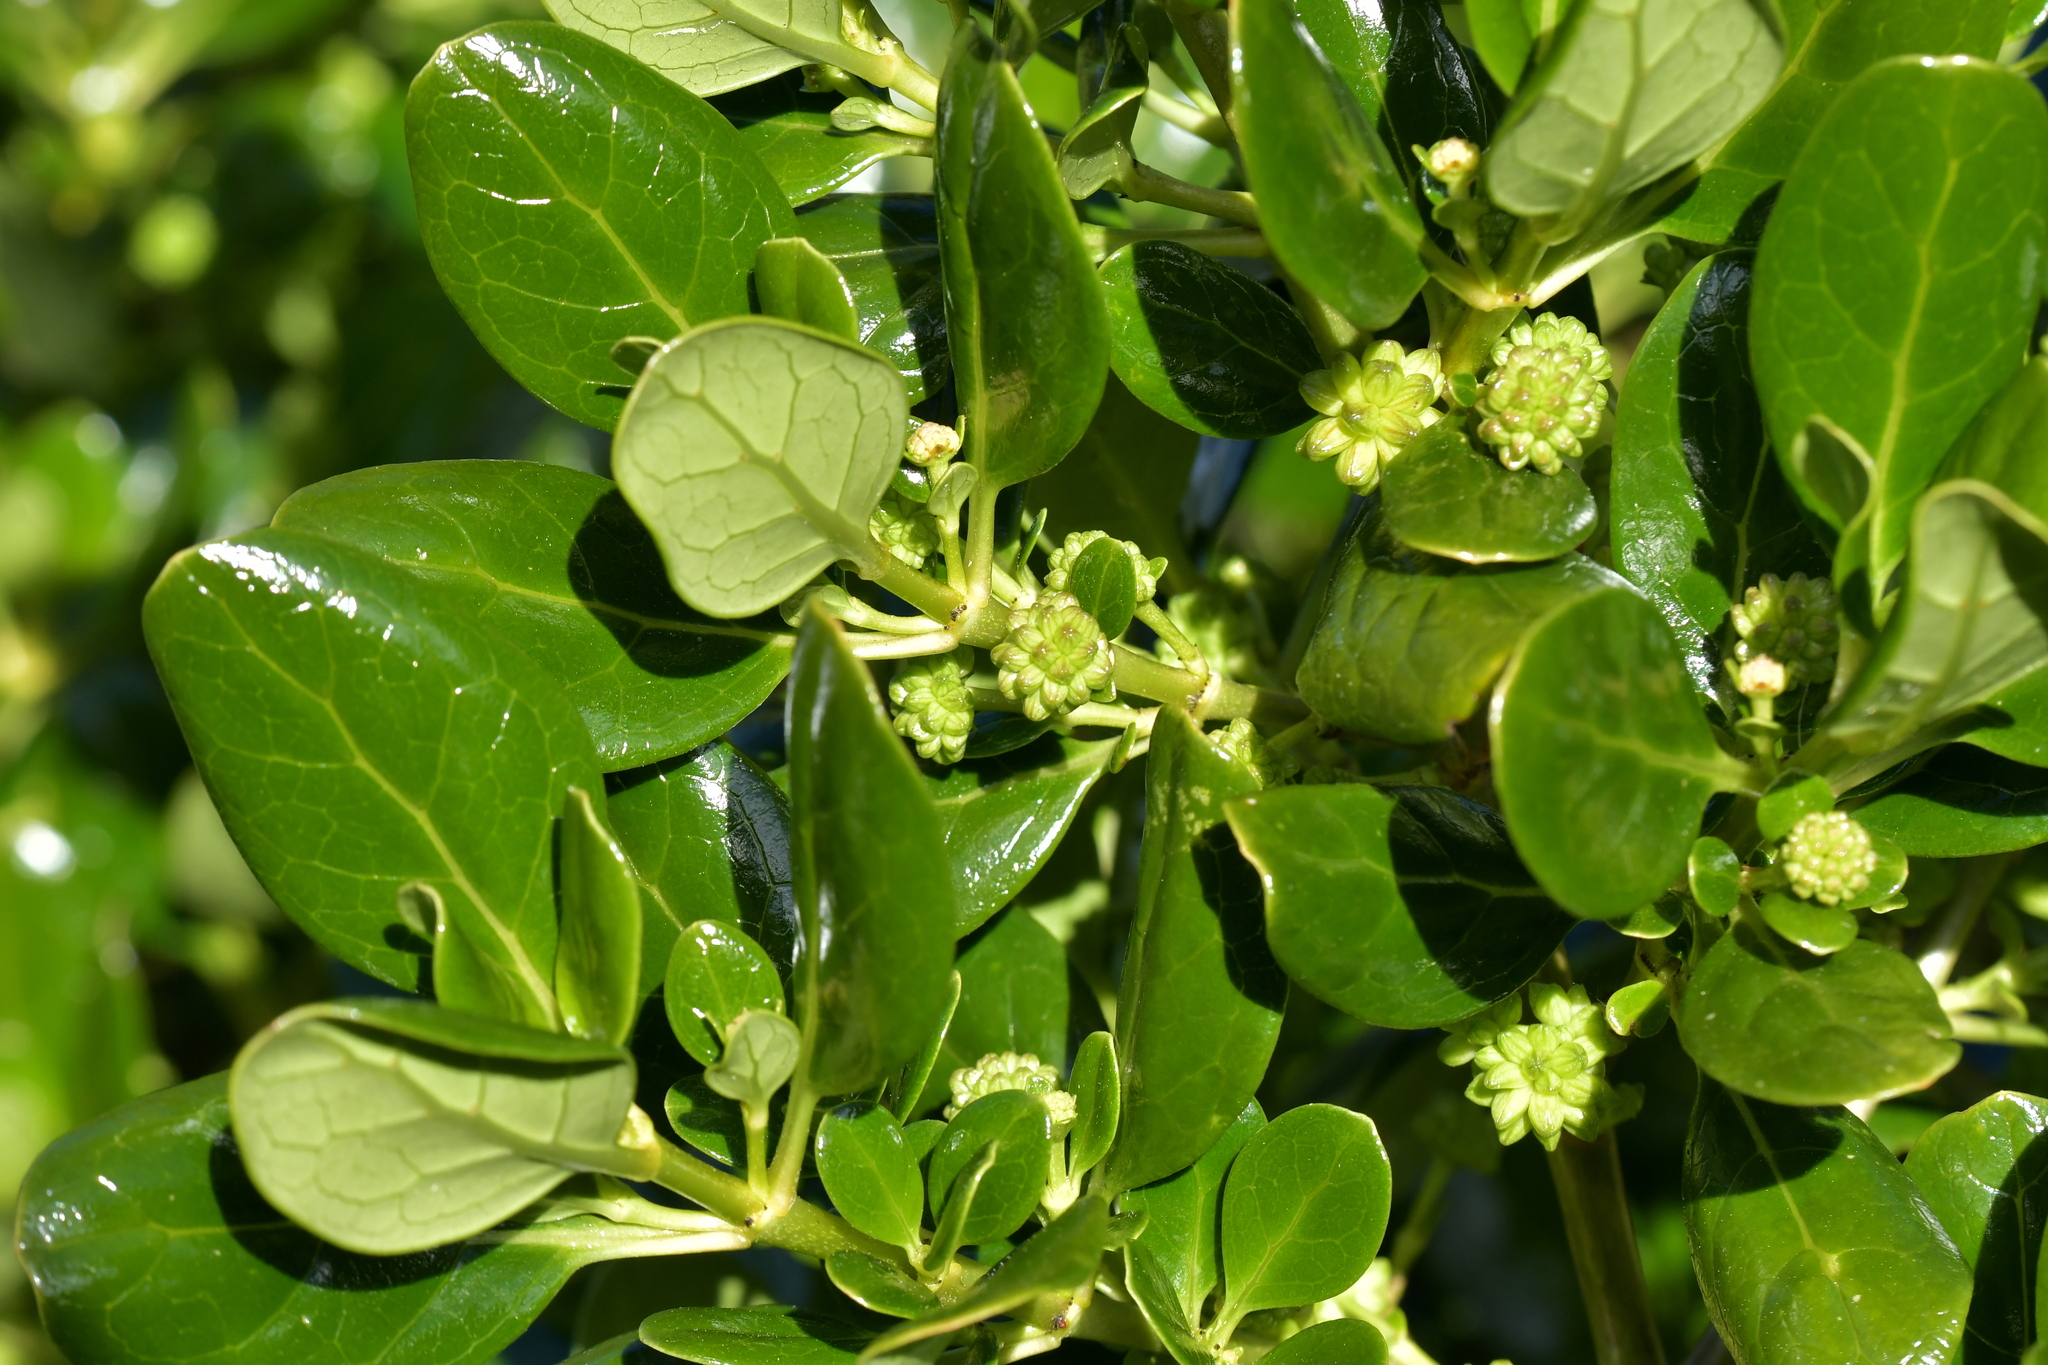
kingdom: Plantae
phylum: Tracheophyta
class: Magnoliopsida
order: Gentianales
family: Rubiaceae
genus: Coprosma
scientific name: Coprosma repens
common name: Tree bedstraw
